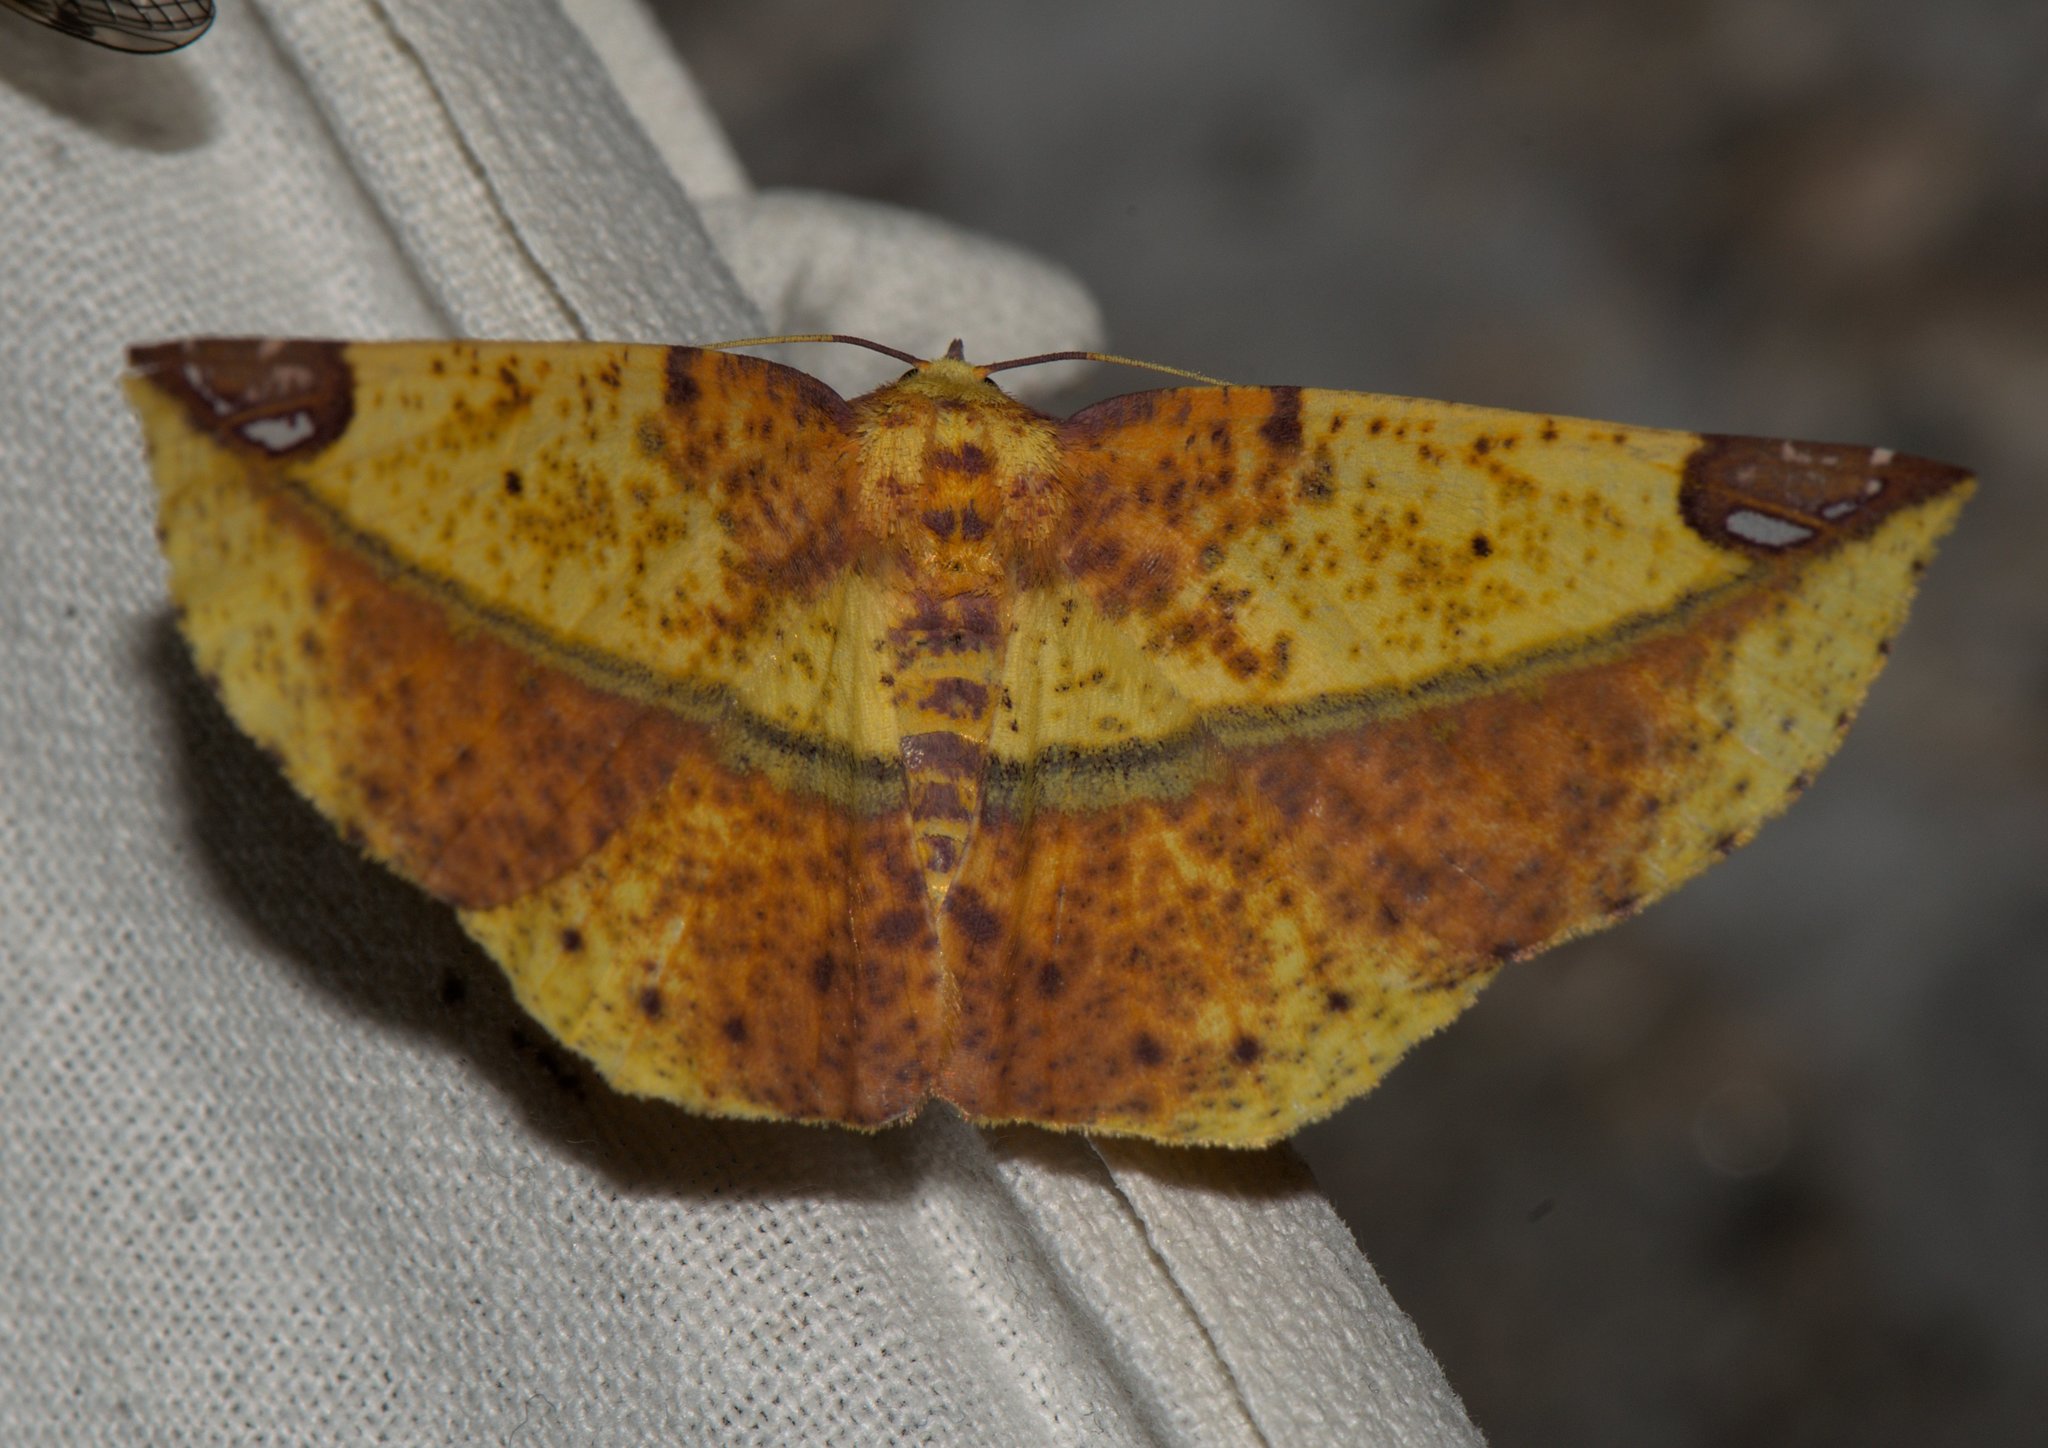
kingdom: Animalia
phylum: Arthropoda
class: Insecta
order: Lepidoptera
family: Geometridae
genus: Mimomiza
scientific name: Mimomiza cruentaria
